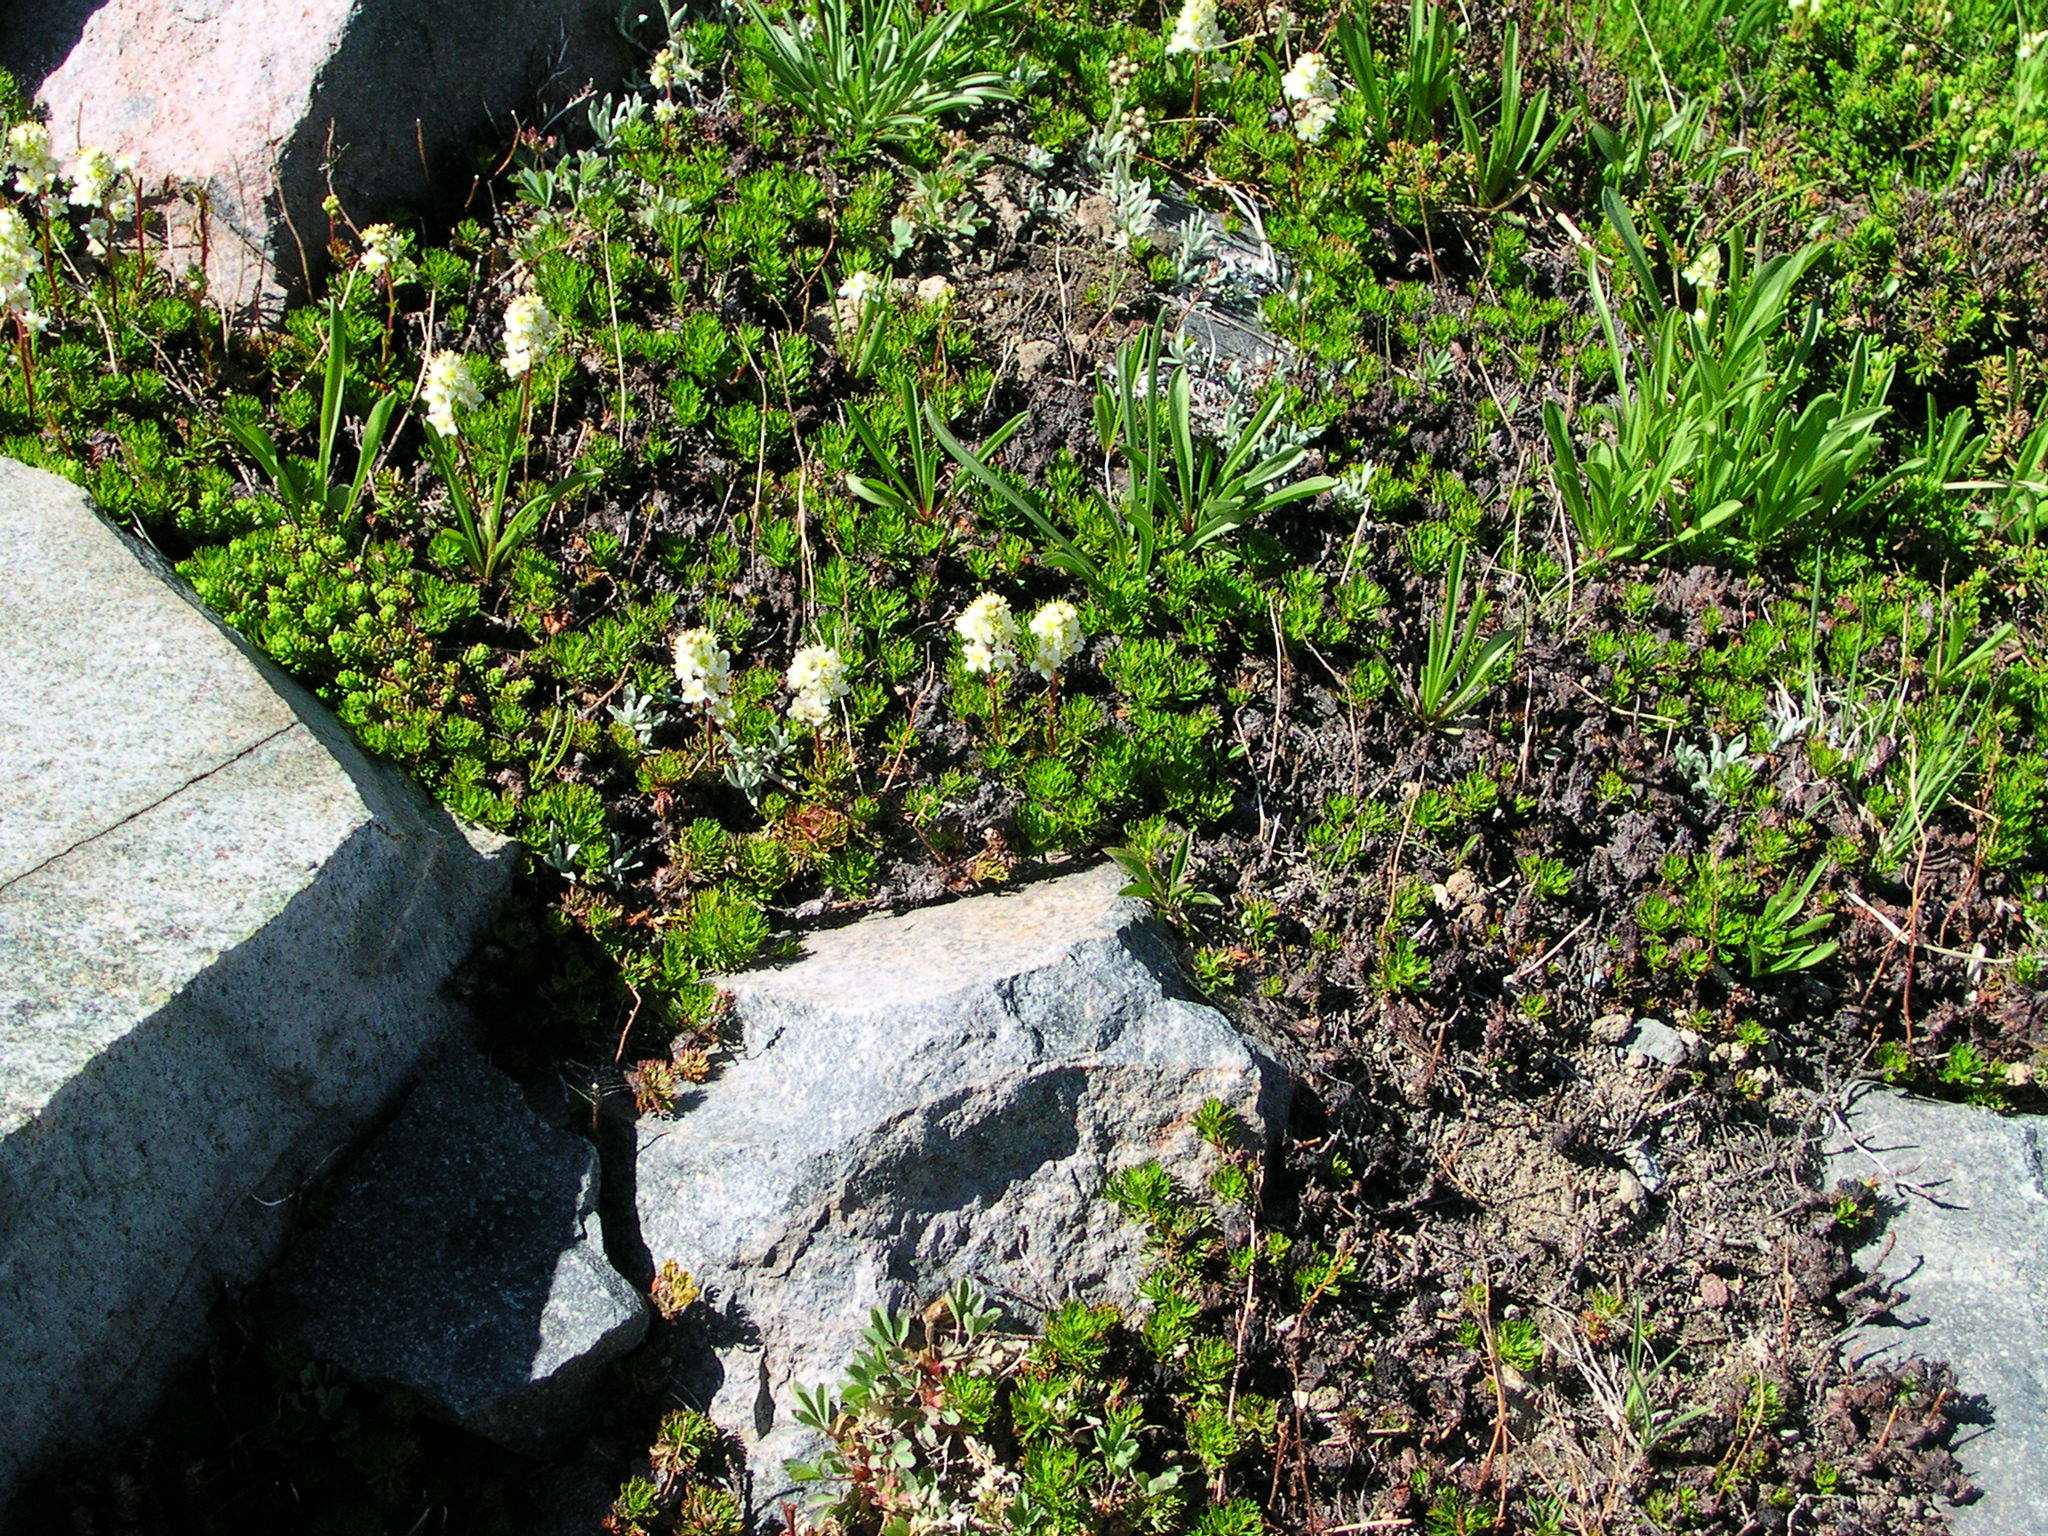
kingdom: Plantae
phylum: Tracheophyta
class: Magnoliopsida
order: Rosales
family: Rosaceae
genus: Luetkea
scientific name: Luetkea pectinata
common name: Partridgefoot
